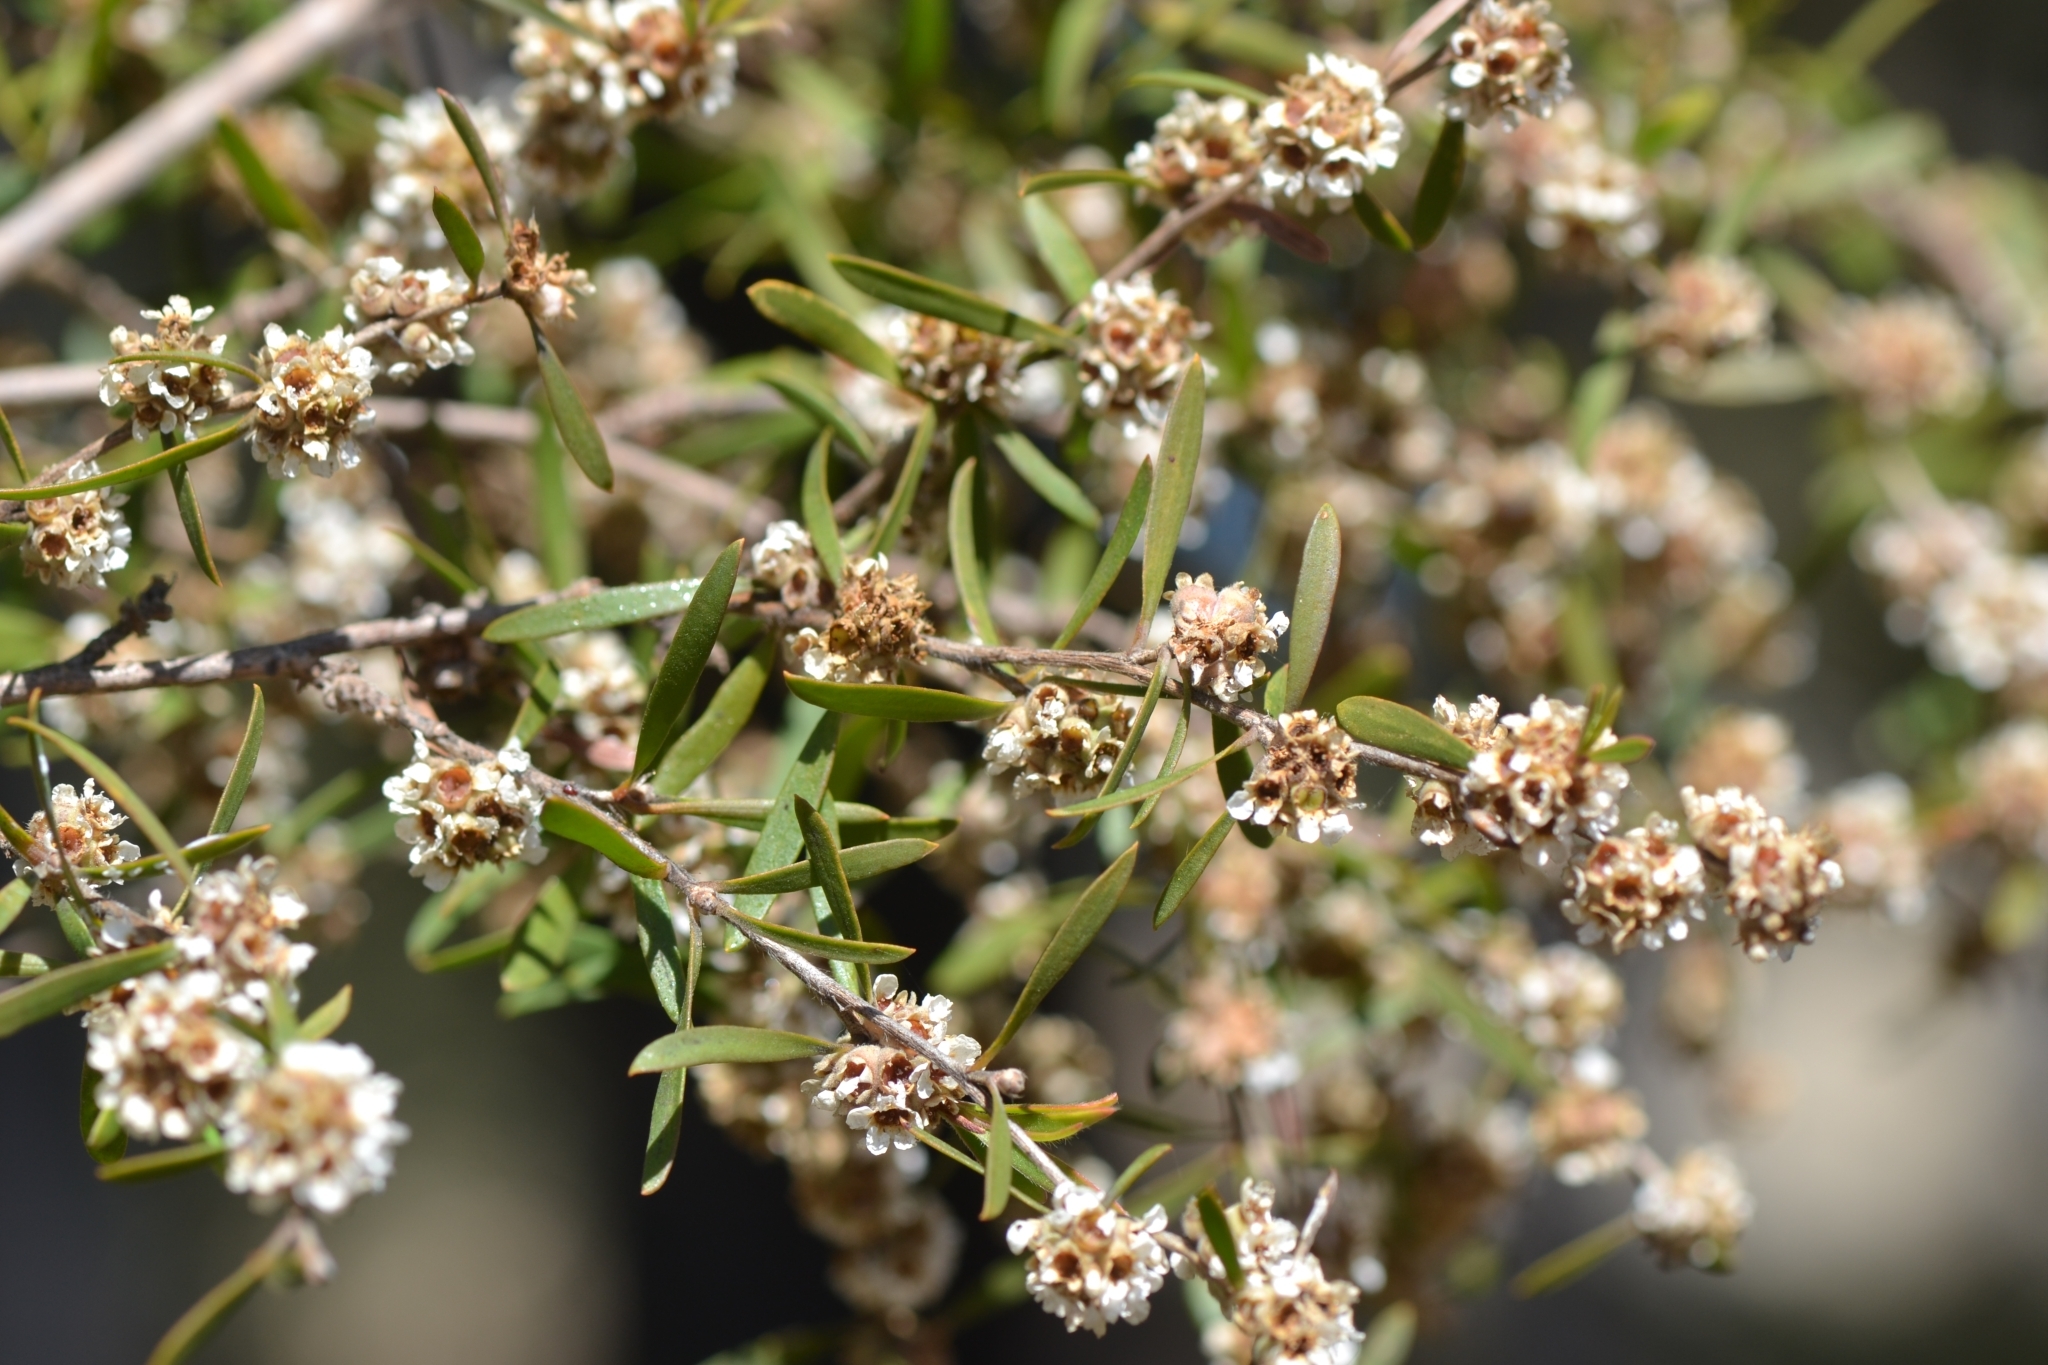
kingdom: Plantae
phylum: Tracheophyta
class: Magnoliopsida
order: Myrtales
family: Myrtaceae
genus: Taxandria
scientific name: Taxandria linearifolia
